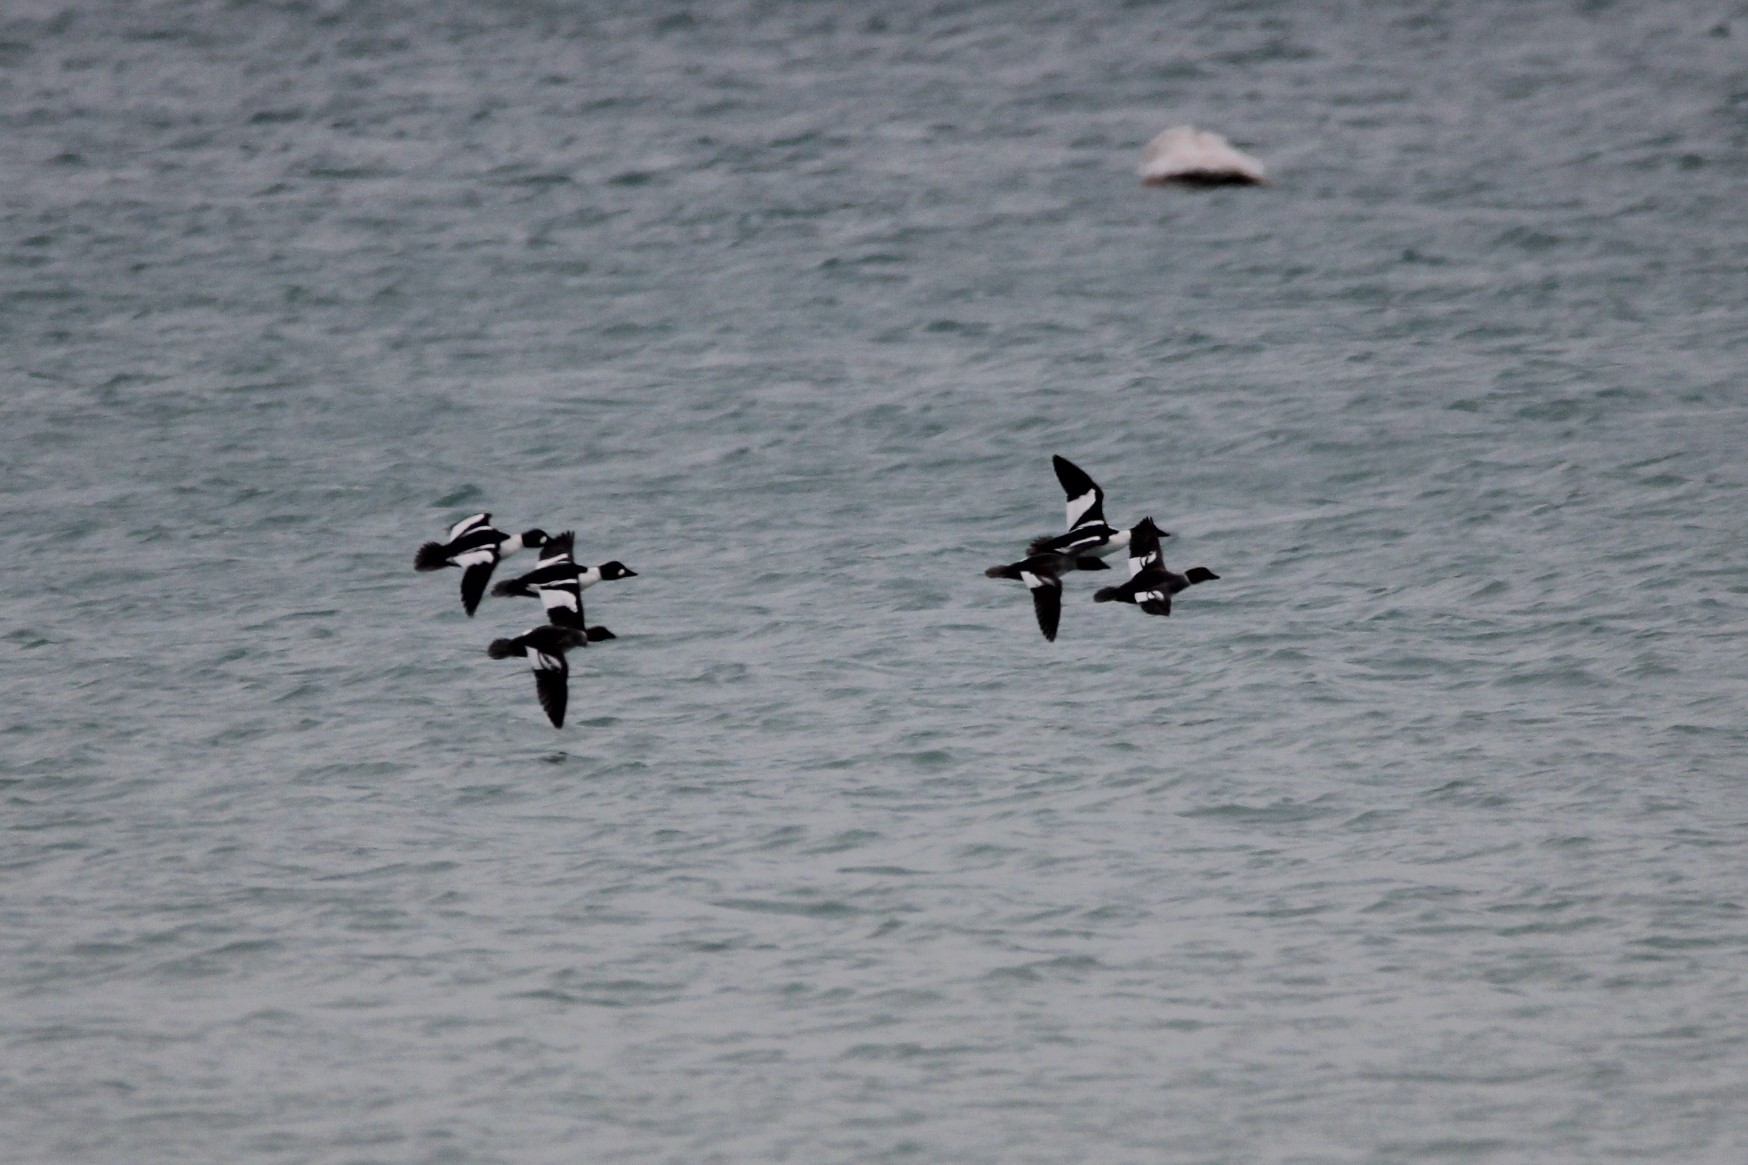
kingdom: Animalia
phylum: Chordata
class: Aves
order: Anseriformes
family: Anatidae
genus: Bucephala
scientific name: Bucephala clangula
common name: Common goldeneye
